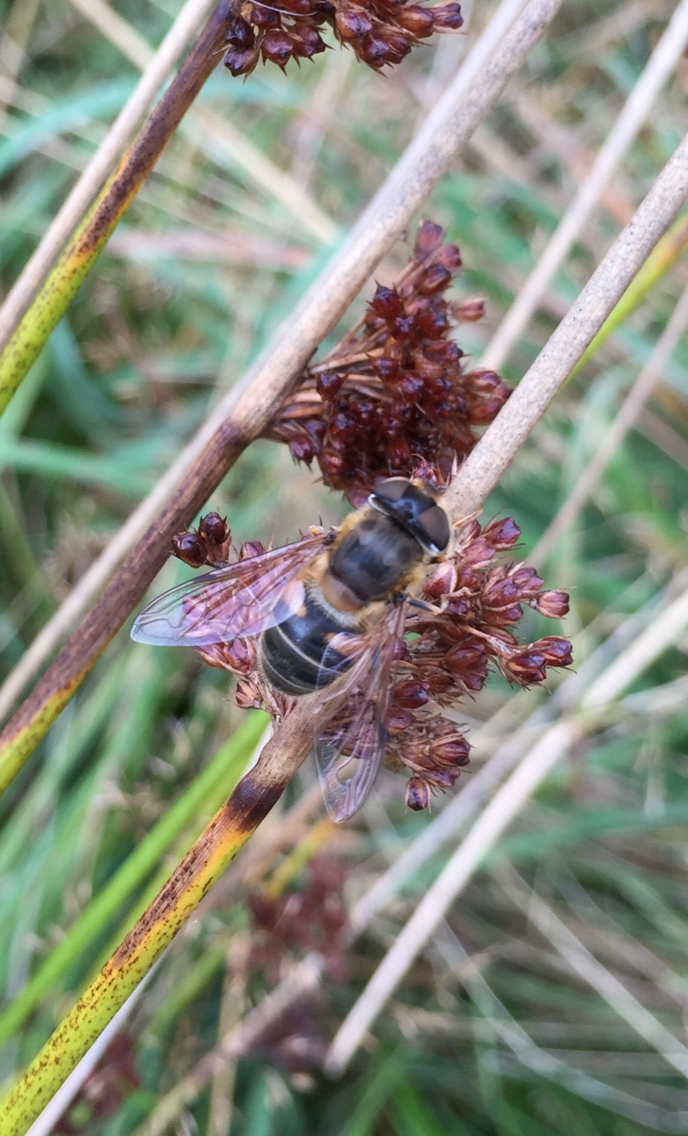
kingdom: Animalia
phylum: Arthropoda
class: Insecta
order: Diptera
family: Syrphidae
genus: Eristalis
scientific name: Eristalis pertinax
